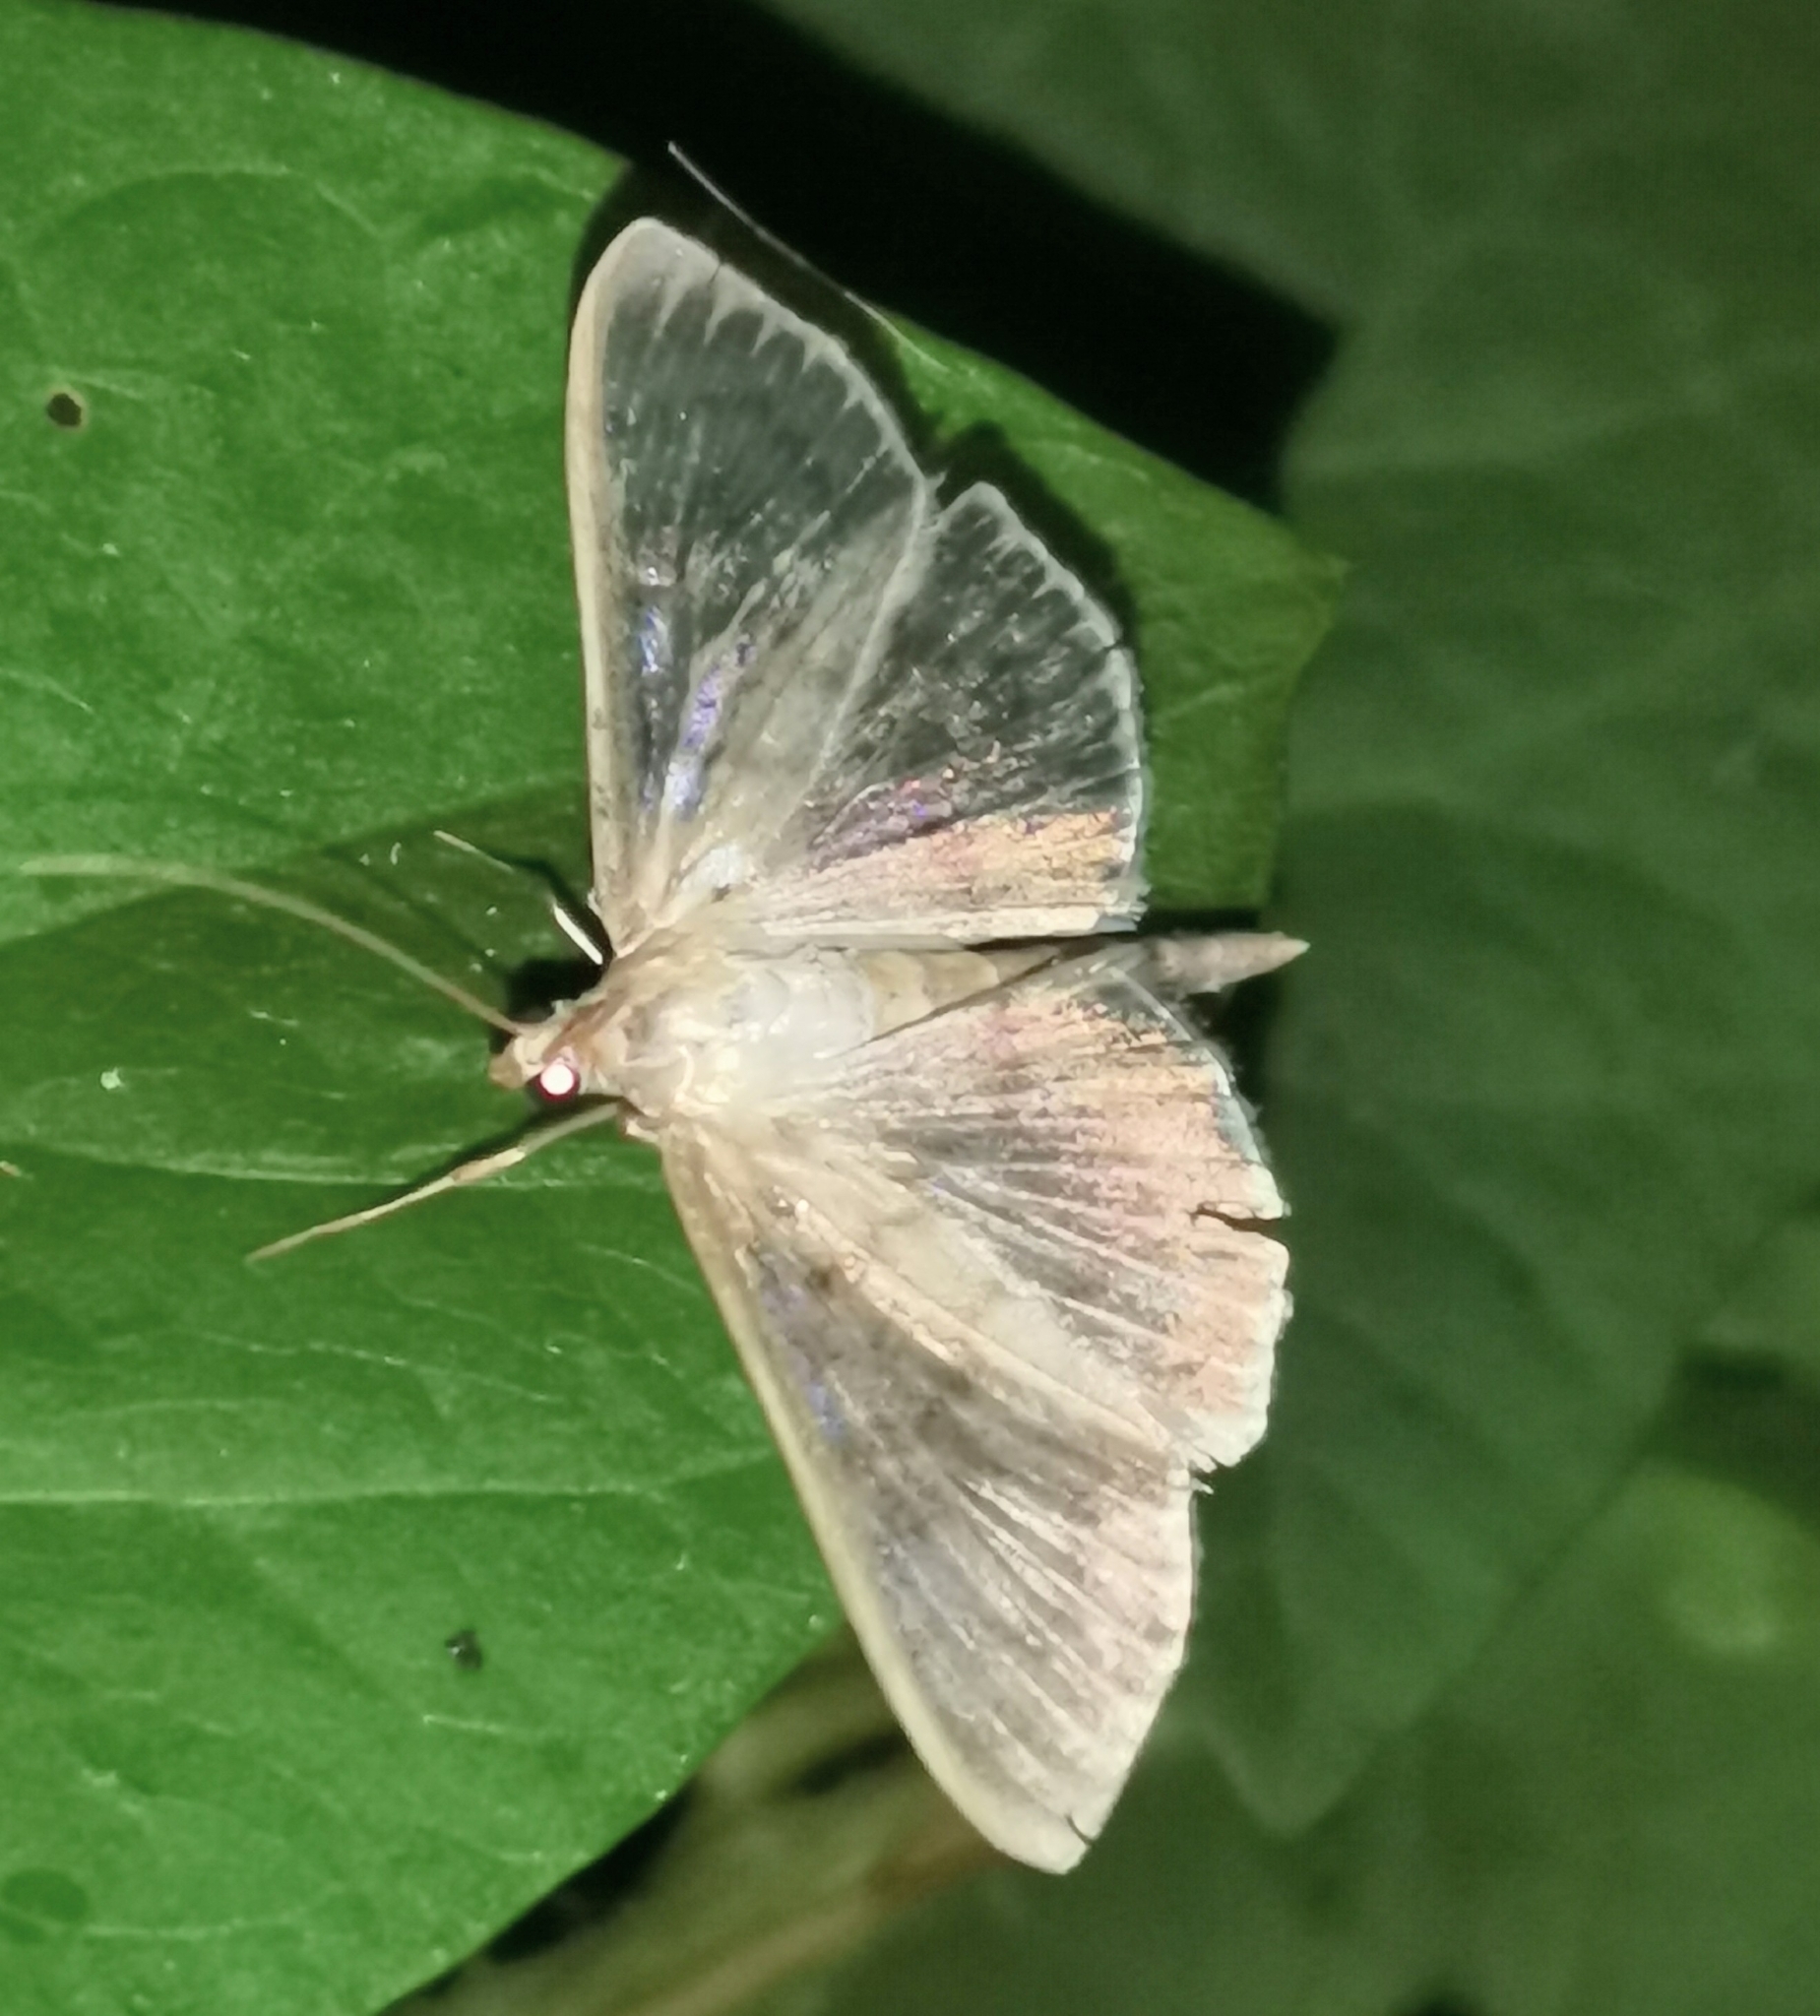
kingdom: Animalia
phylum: Arthropoda
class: Insecta
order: Lepidoptera
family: Crambidae
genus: Patania
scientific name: Patania ruralis
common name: Mother of pearl
